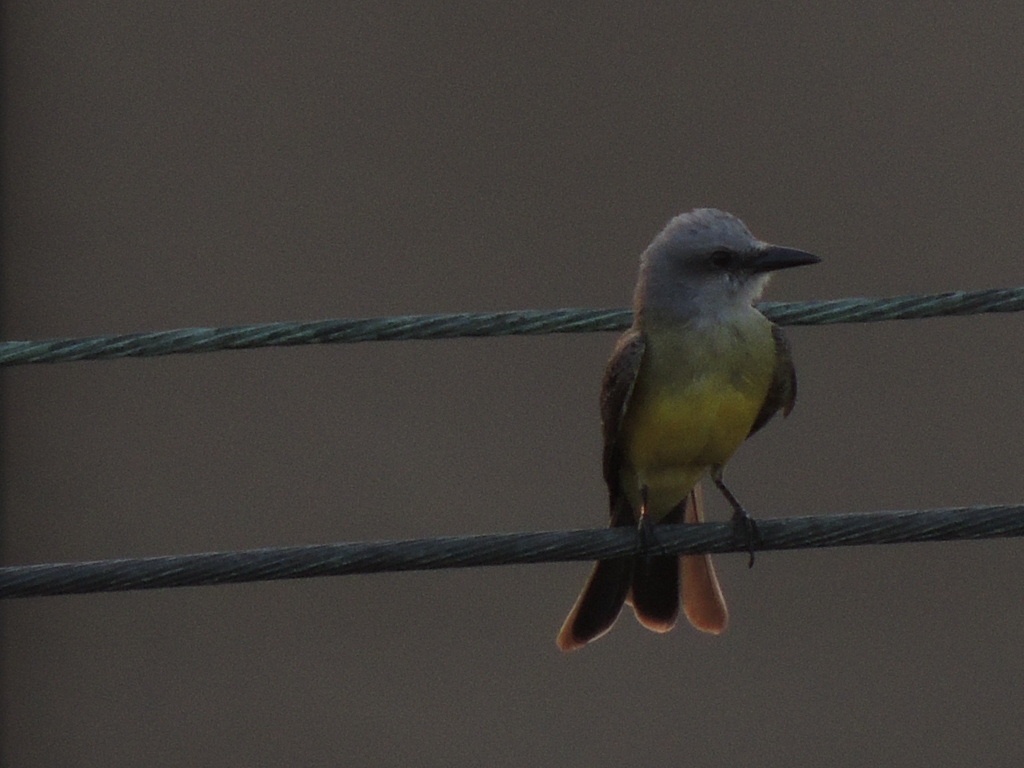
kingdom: Animalia
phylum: Chordata
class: Aves
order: Passeriformes
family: Tyrannidae
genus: Tyrannus
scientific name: Tyrannus melancholicus
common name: Tropical kingbird
